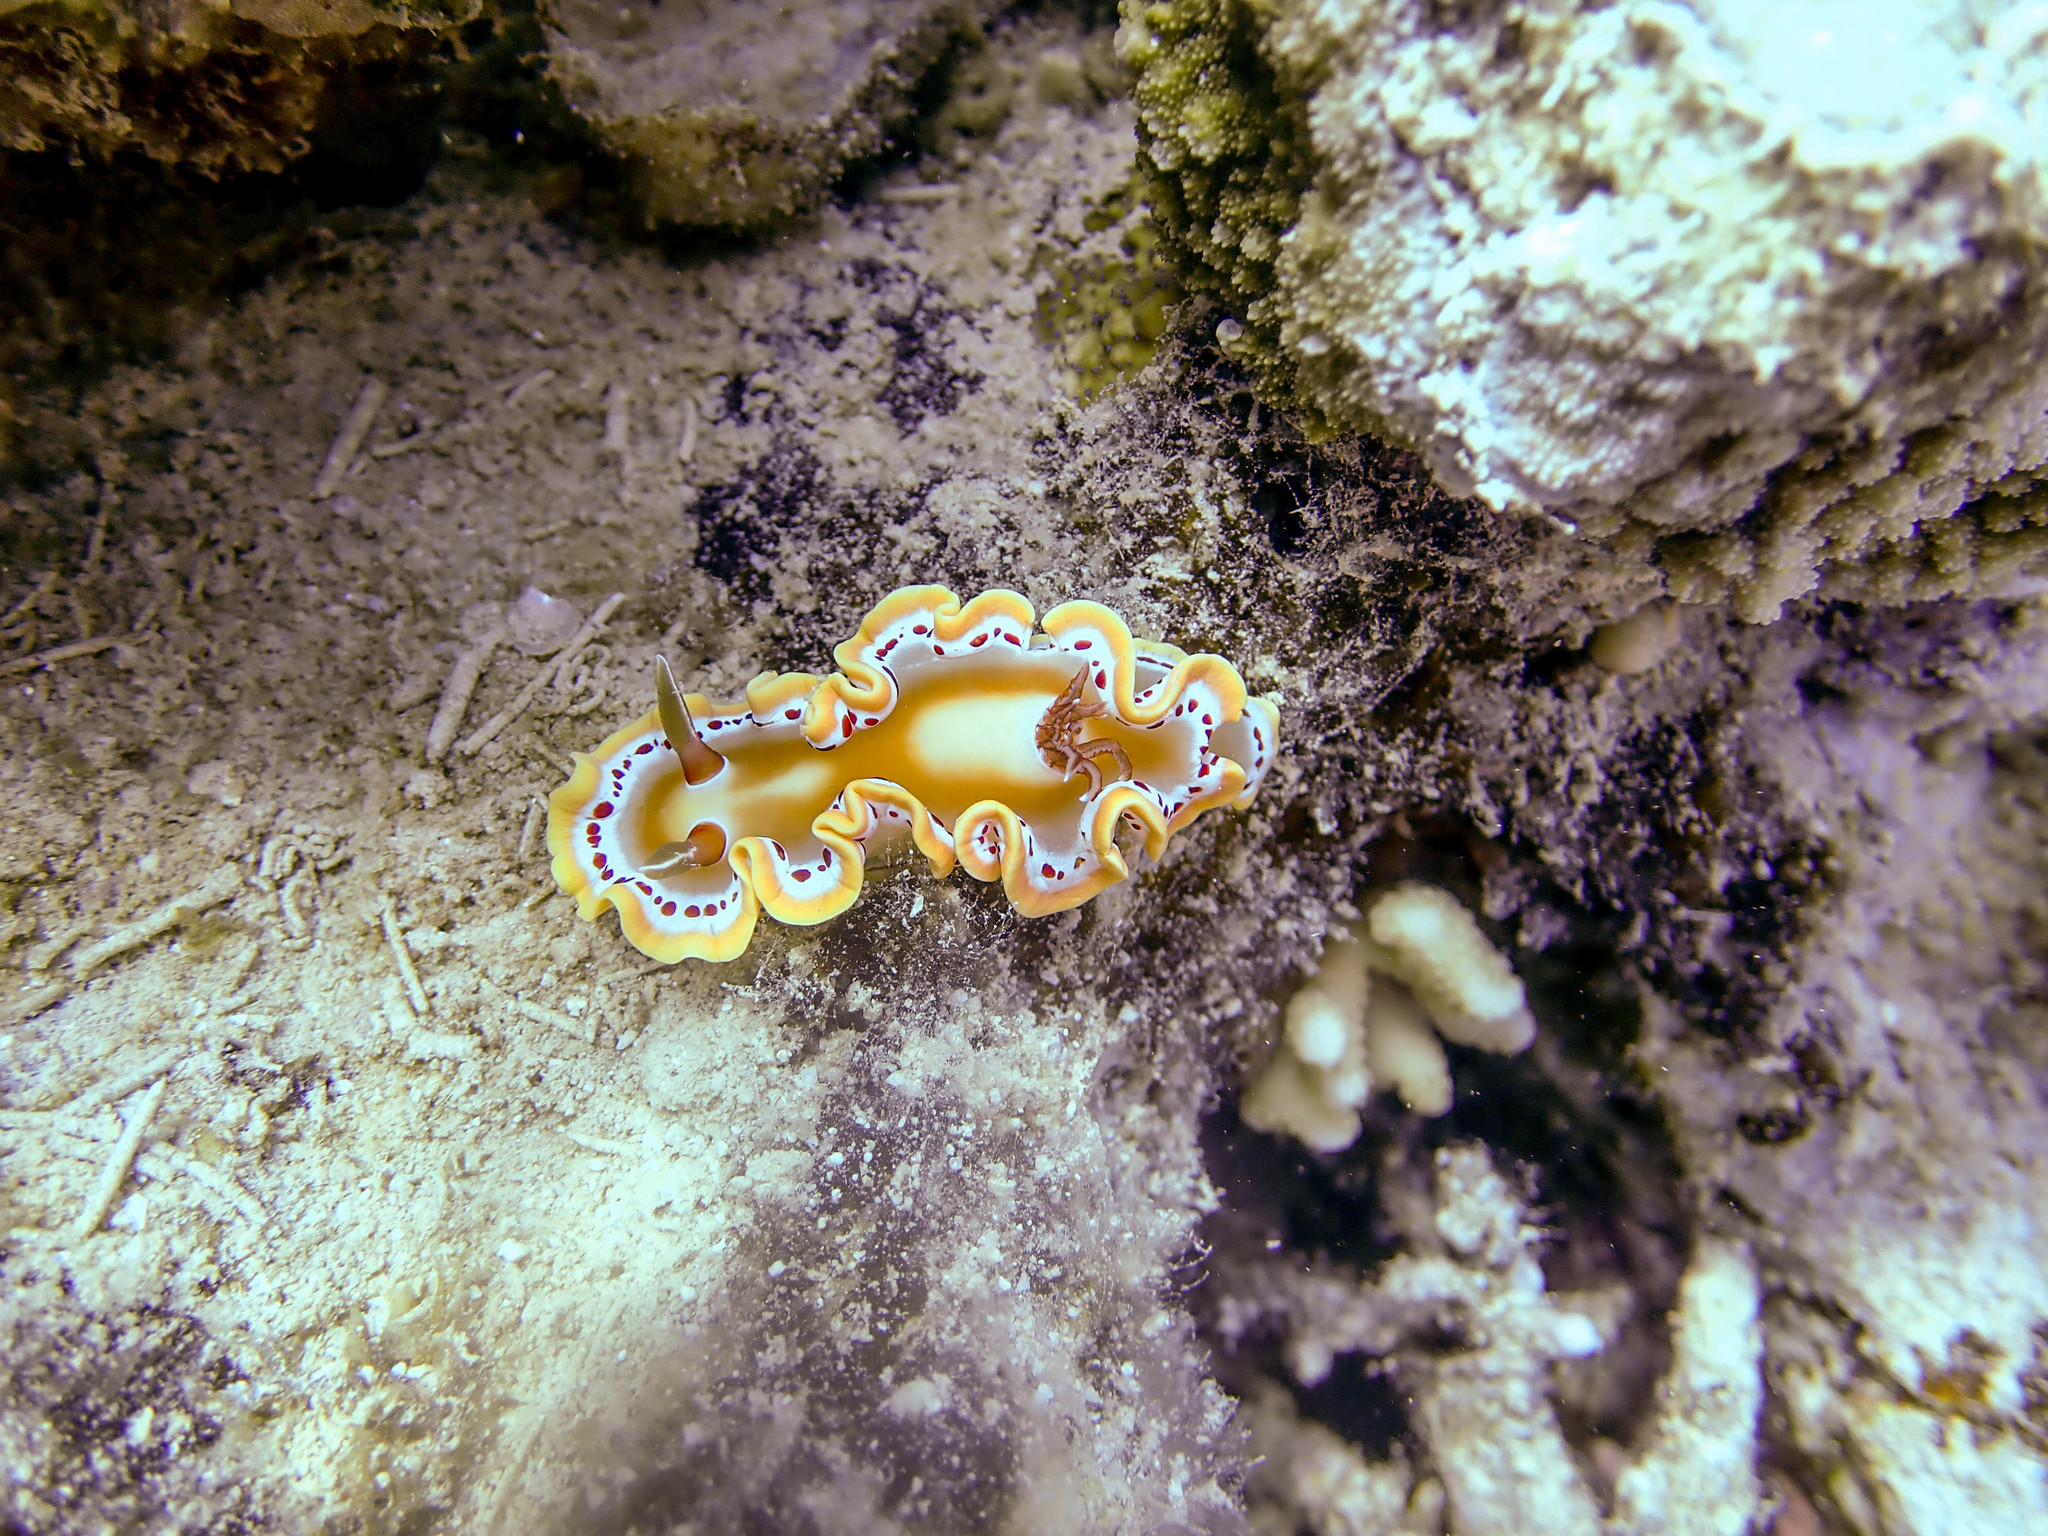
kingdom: Animalia
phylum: Mollusca
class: Gastropoda
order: Nudibranchia
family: Chromodorididae
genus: Ardeadoris
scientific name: Ardeadoris cruenta
